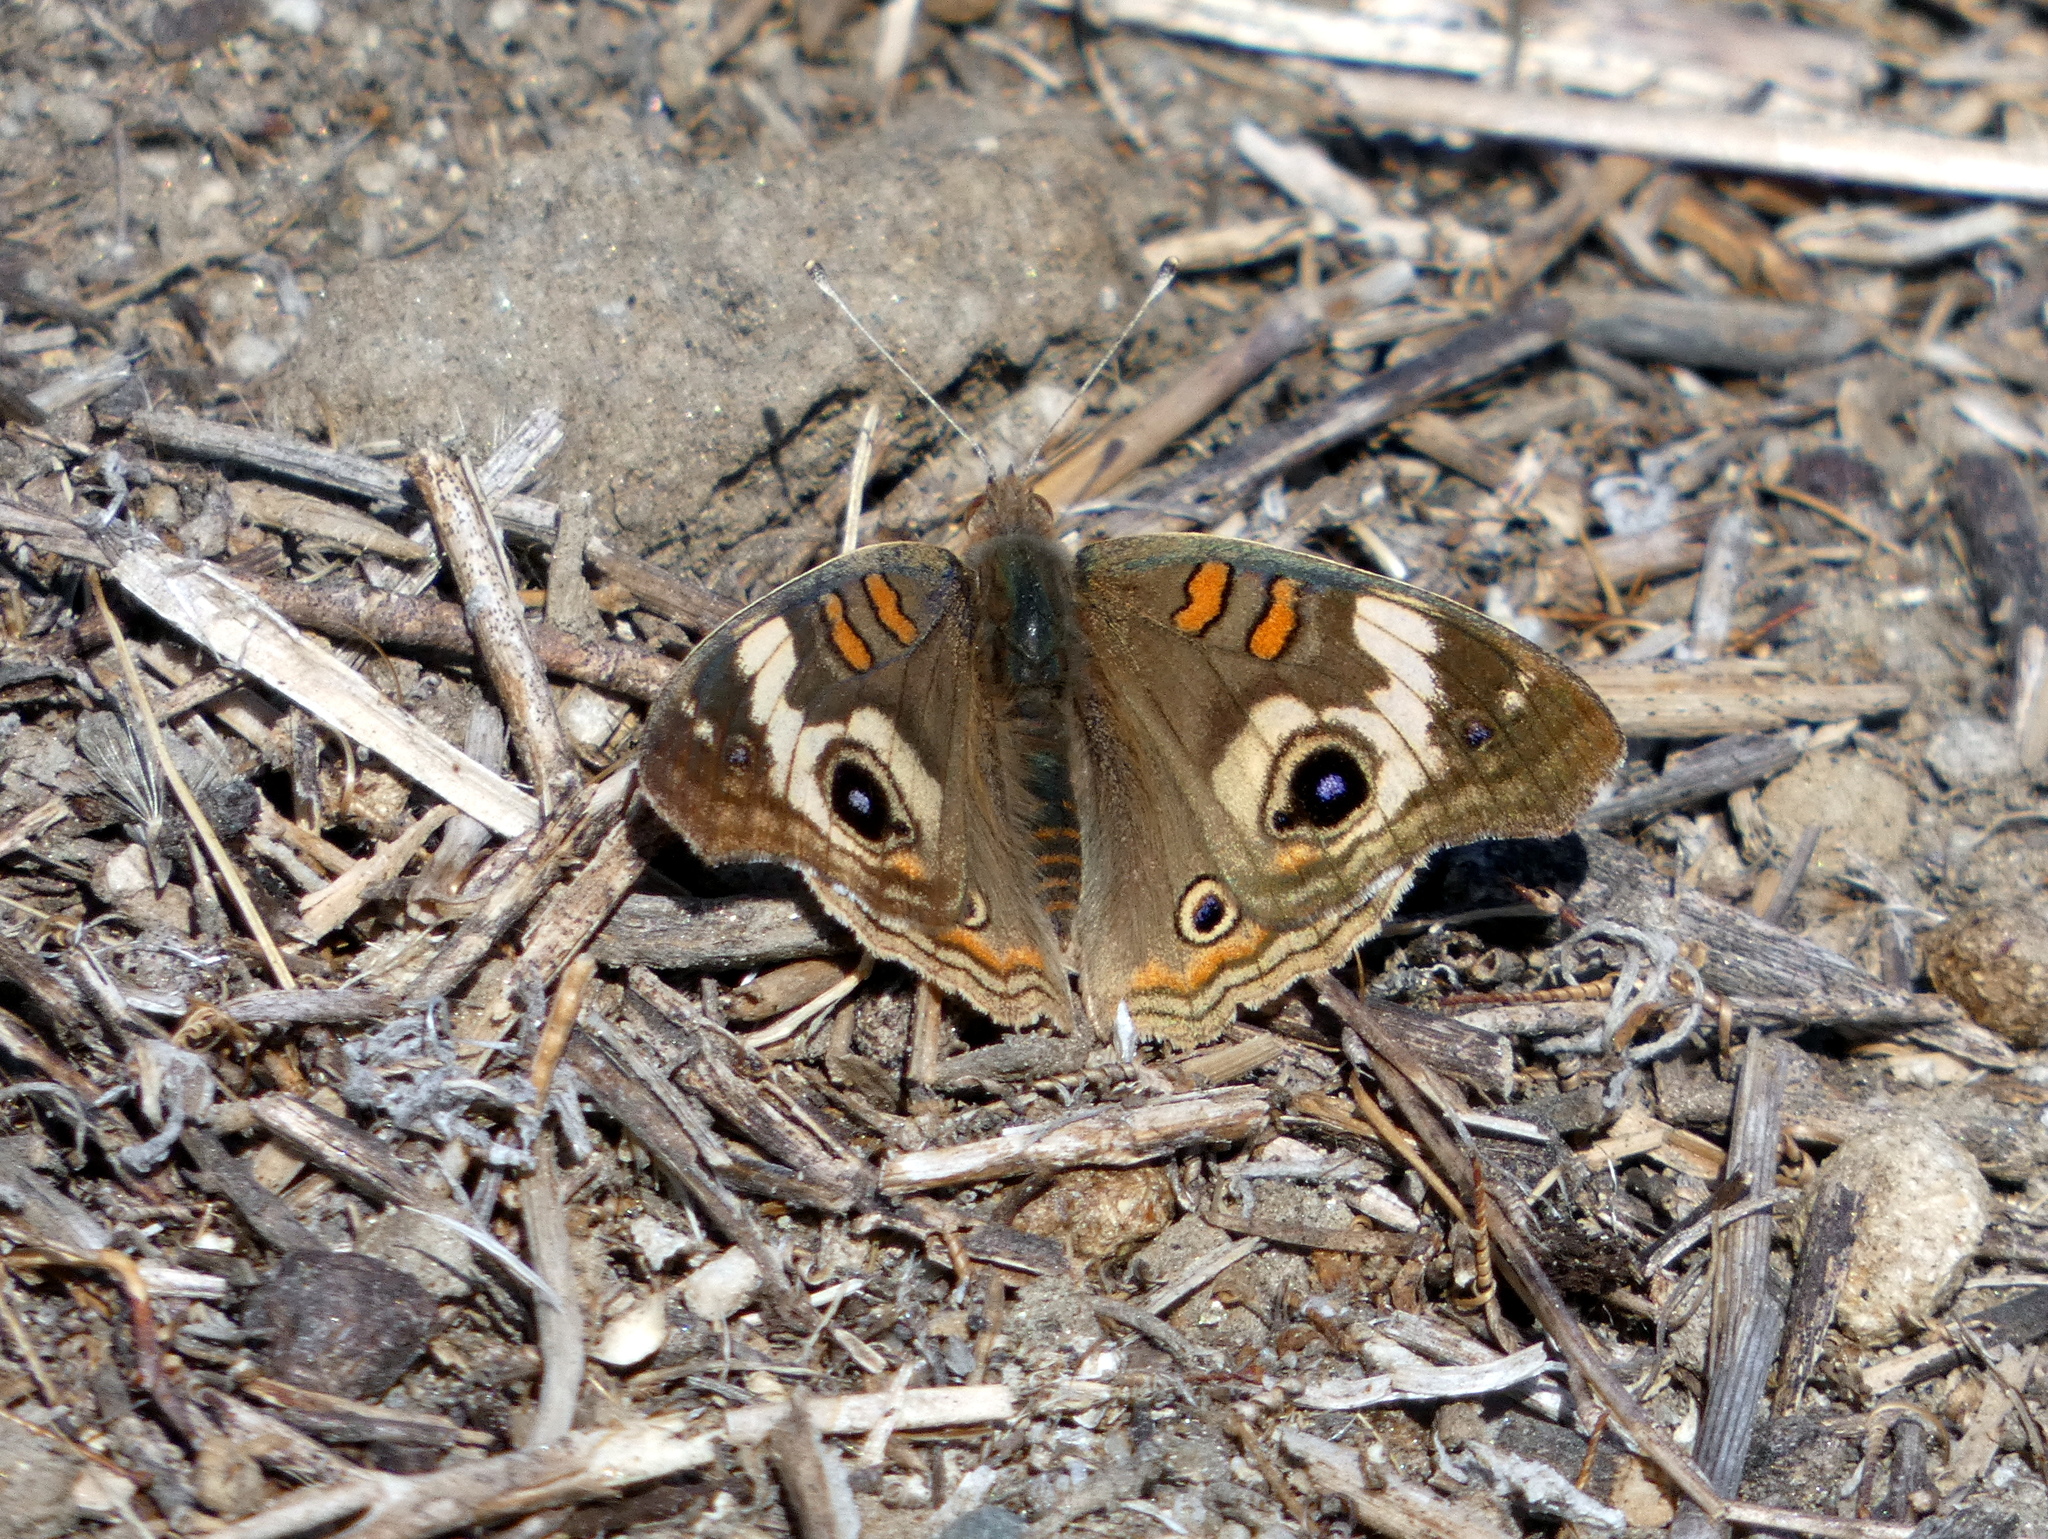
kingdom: Animalia
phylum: Arthropoda
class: Insecta
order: Lepidoptera
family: Nymphalidae
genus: Junonia
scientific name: Junonia grisea
